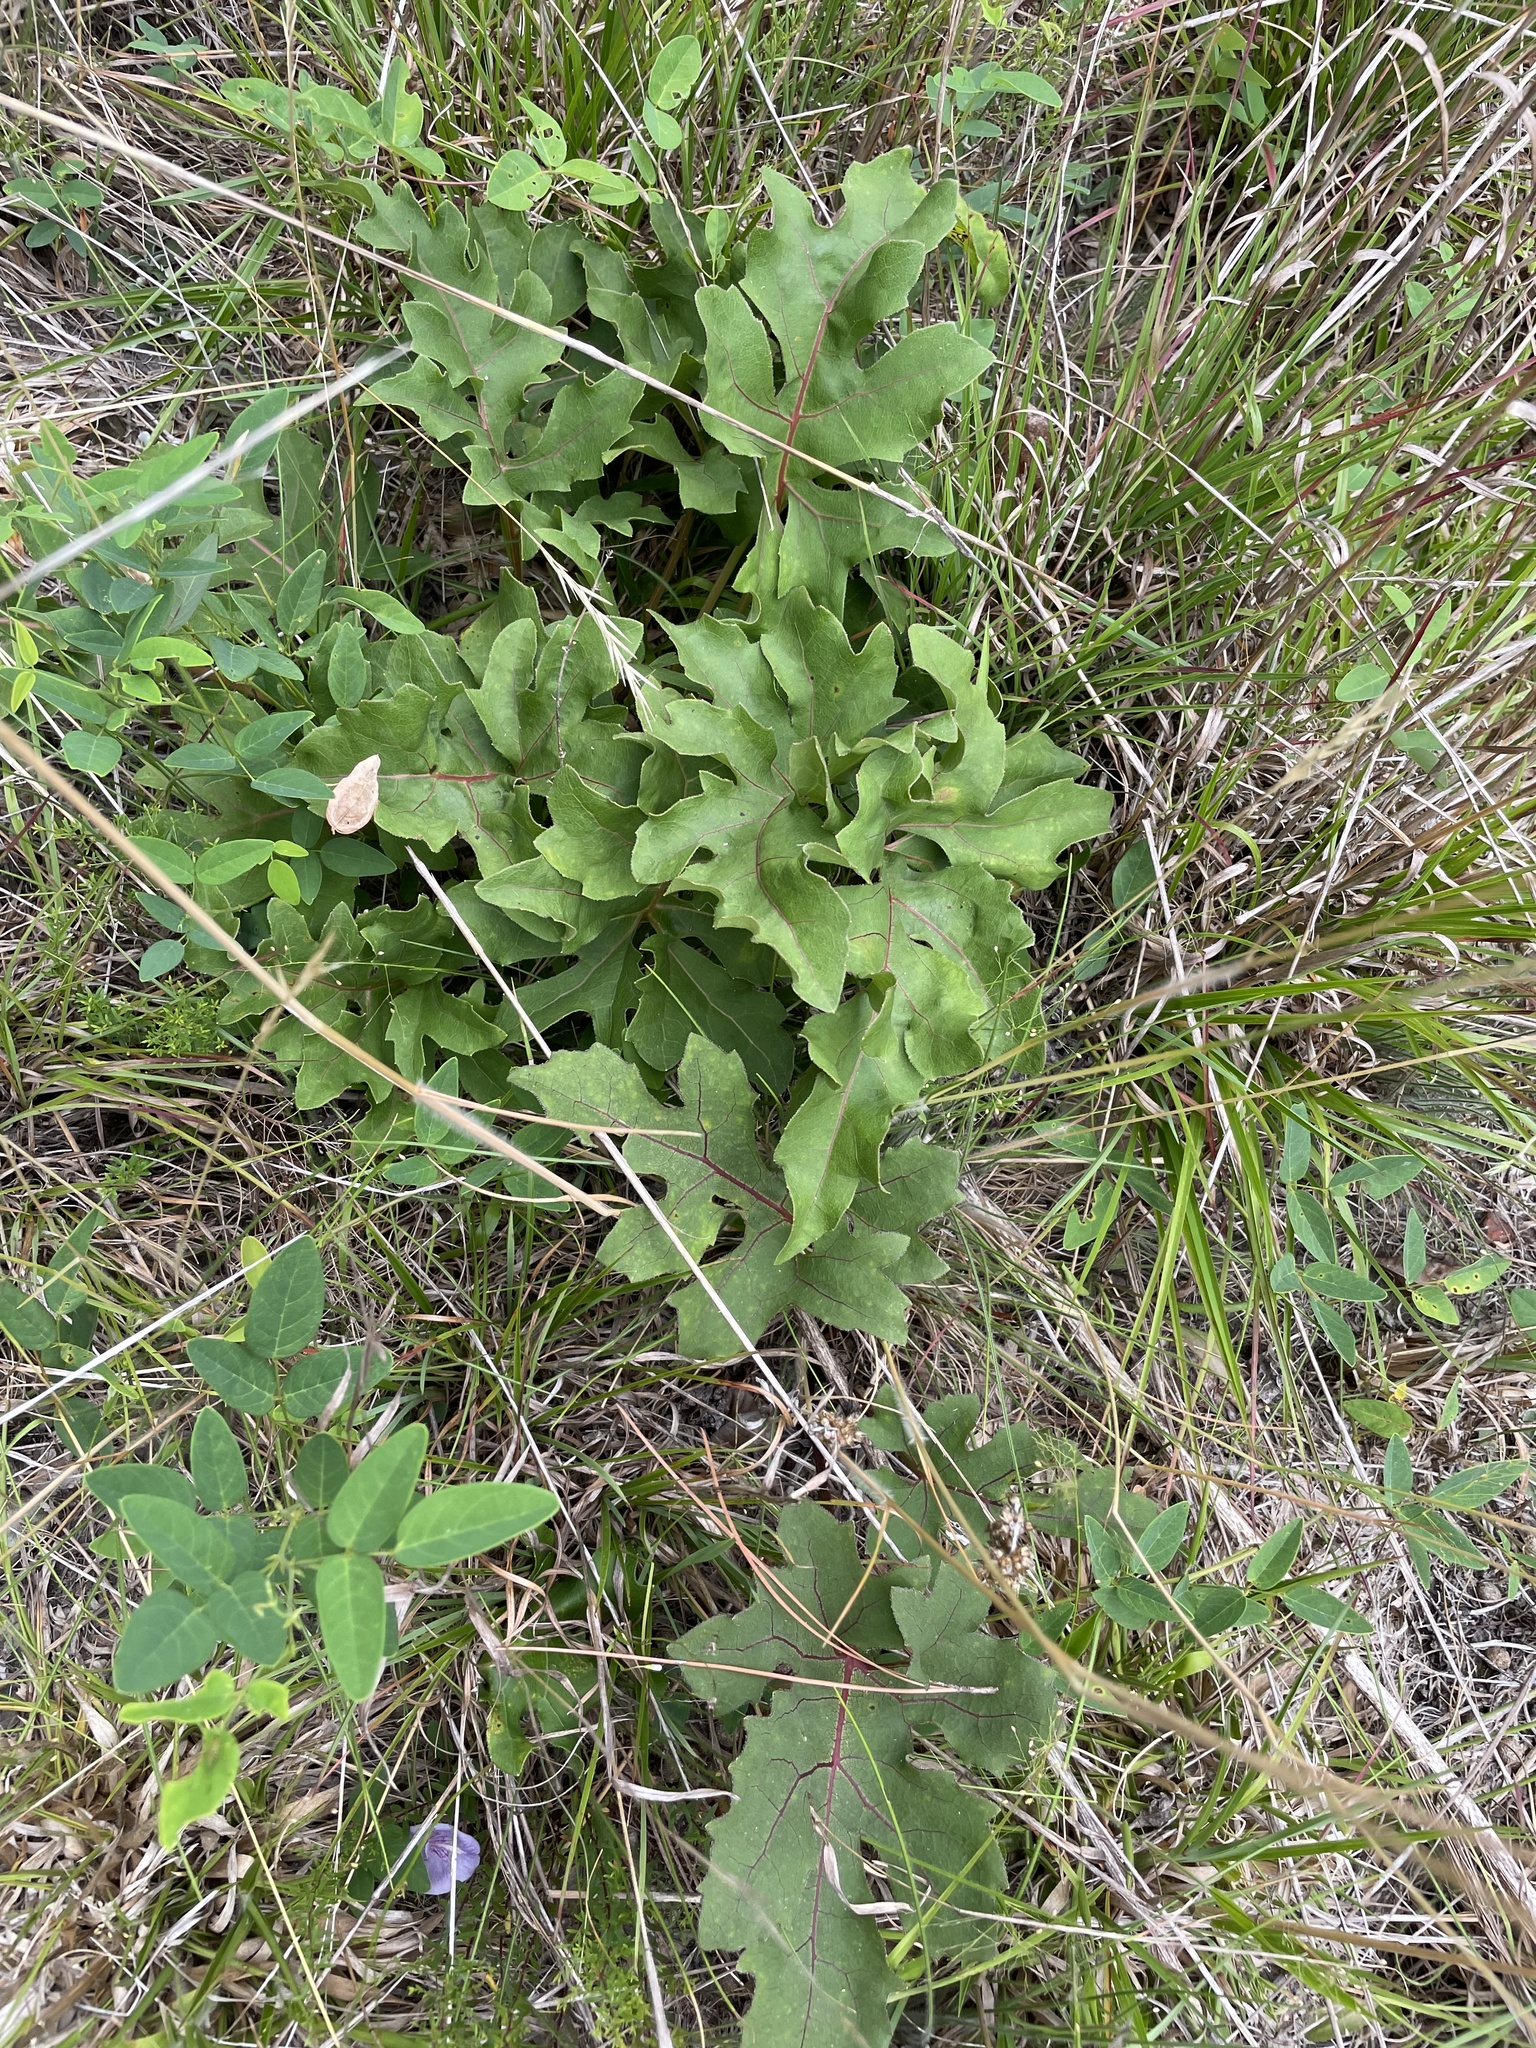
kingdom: Plantae
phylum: Tracheophyta
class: Magnoliopsida
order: Asterales
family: Asteraceae
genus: Silphium
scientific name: Silphium compositum
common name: Lesser basal-leaf rosinweed
